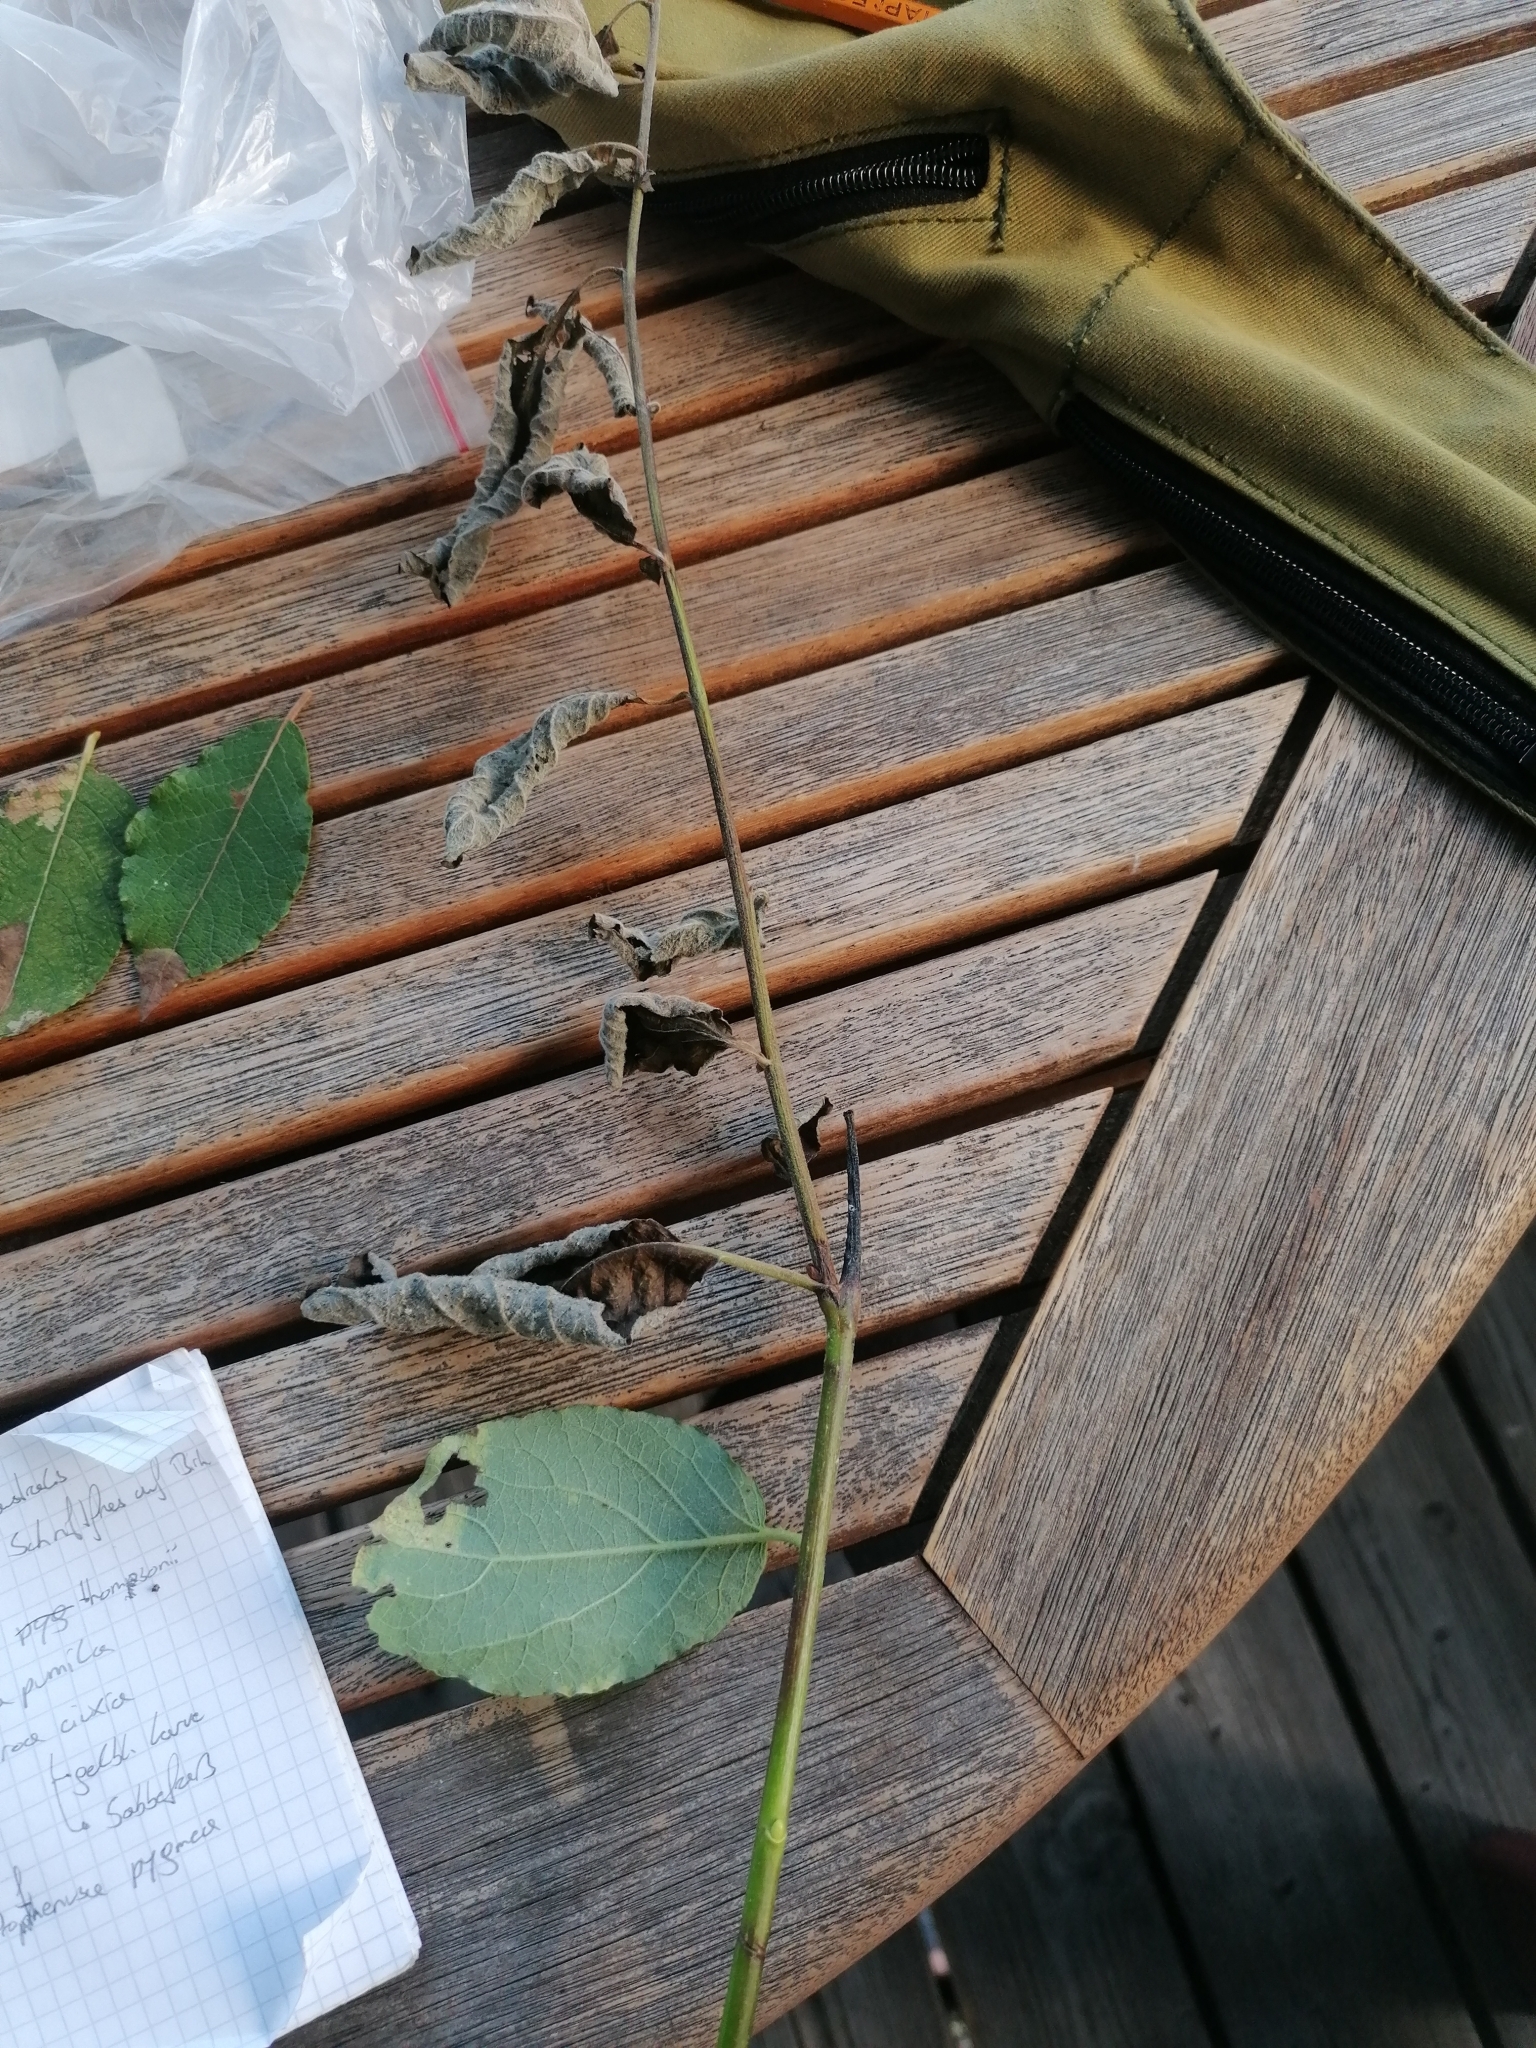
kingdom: Animalia
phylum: Arthropoda
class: Insecta
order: Hymenoptera
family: Cephidae
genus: Janus
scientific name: Janus luteipes
